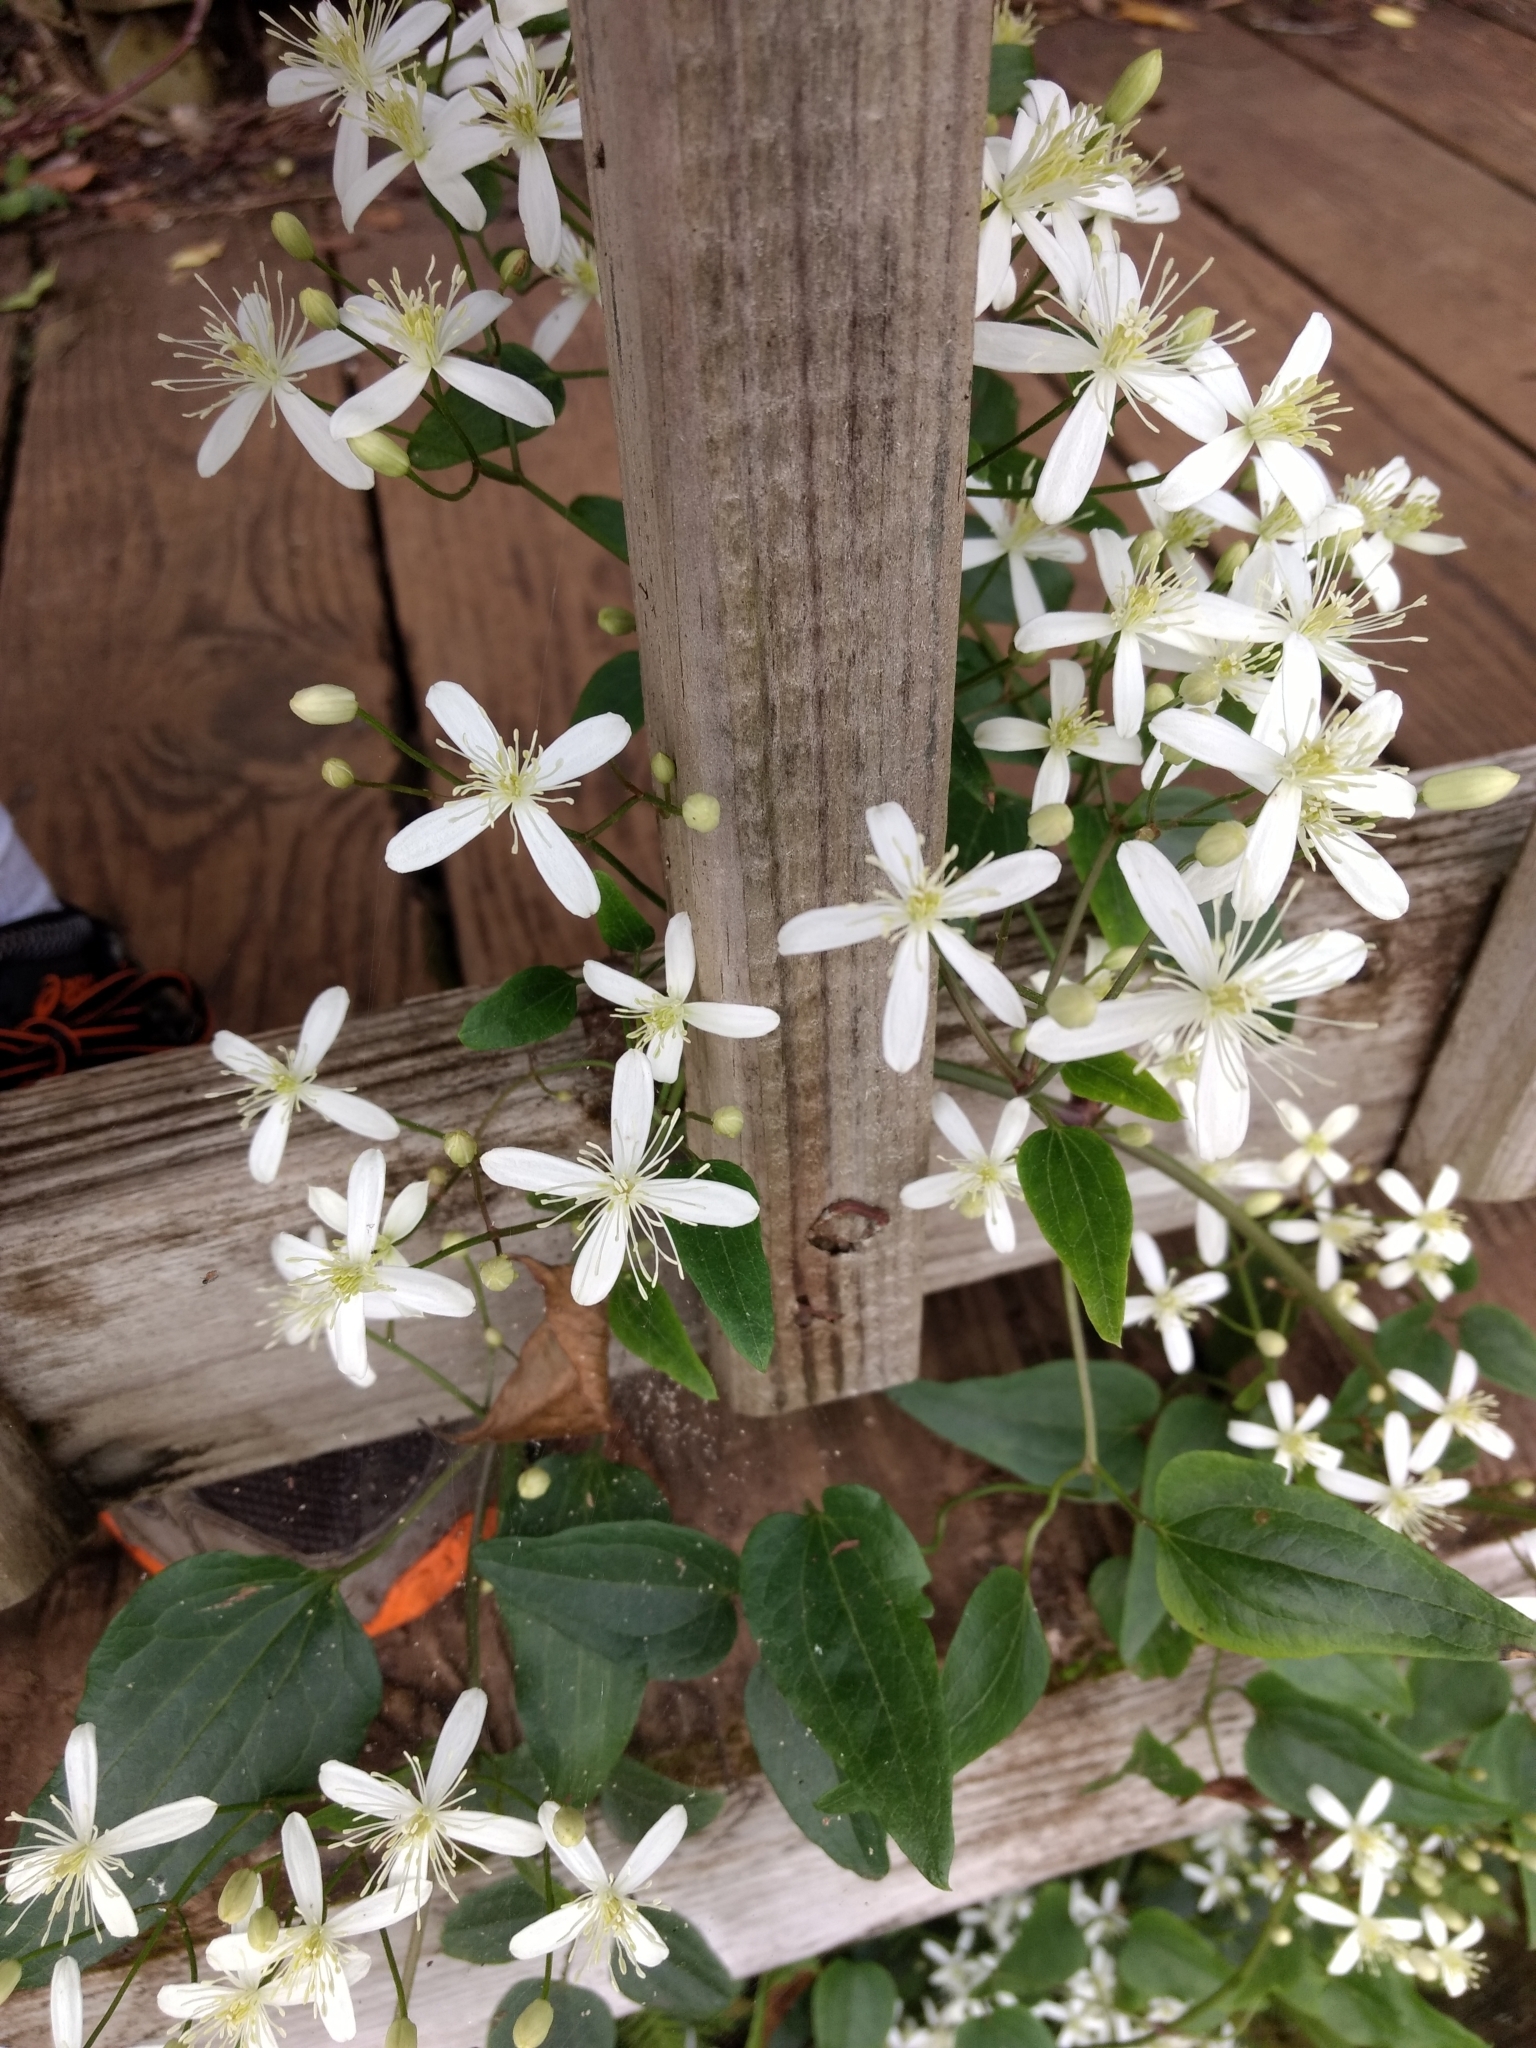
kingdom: Plantae
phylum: Tracheophyta
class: Magnoliopsida
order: Ranunculales
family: Ranunculaceae
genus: Clematis
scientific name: Clematis terniflora
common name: Sweet autumn clematis
